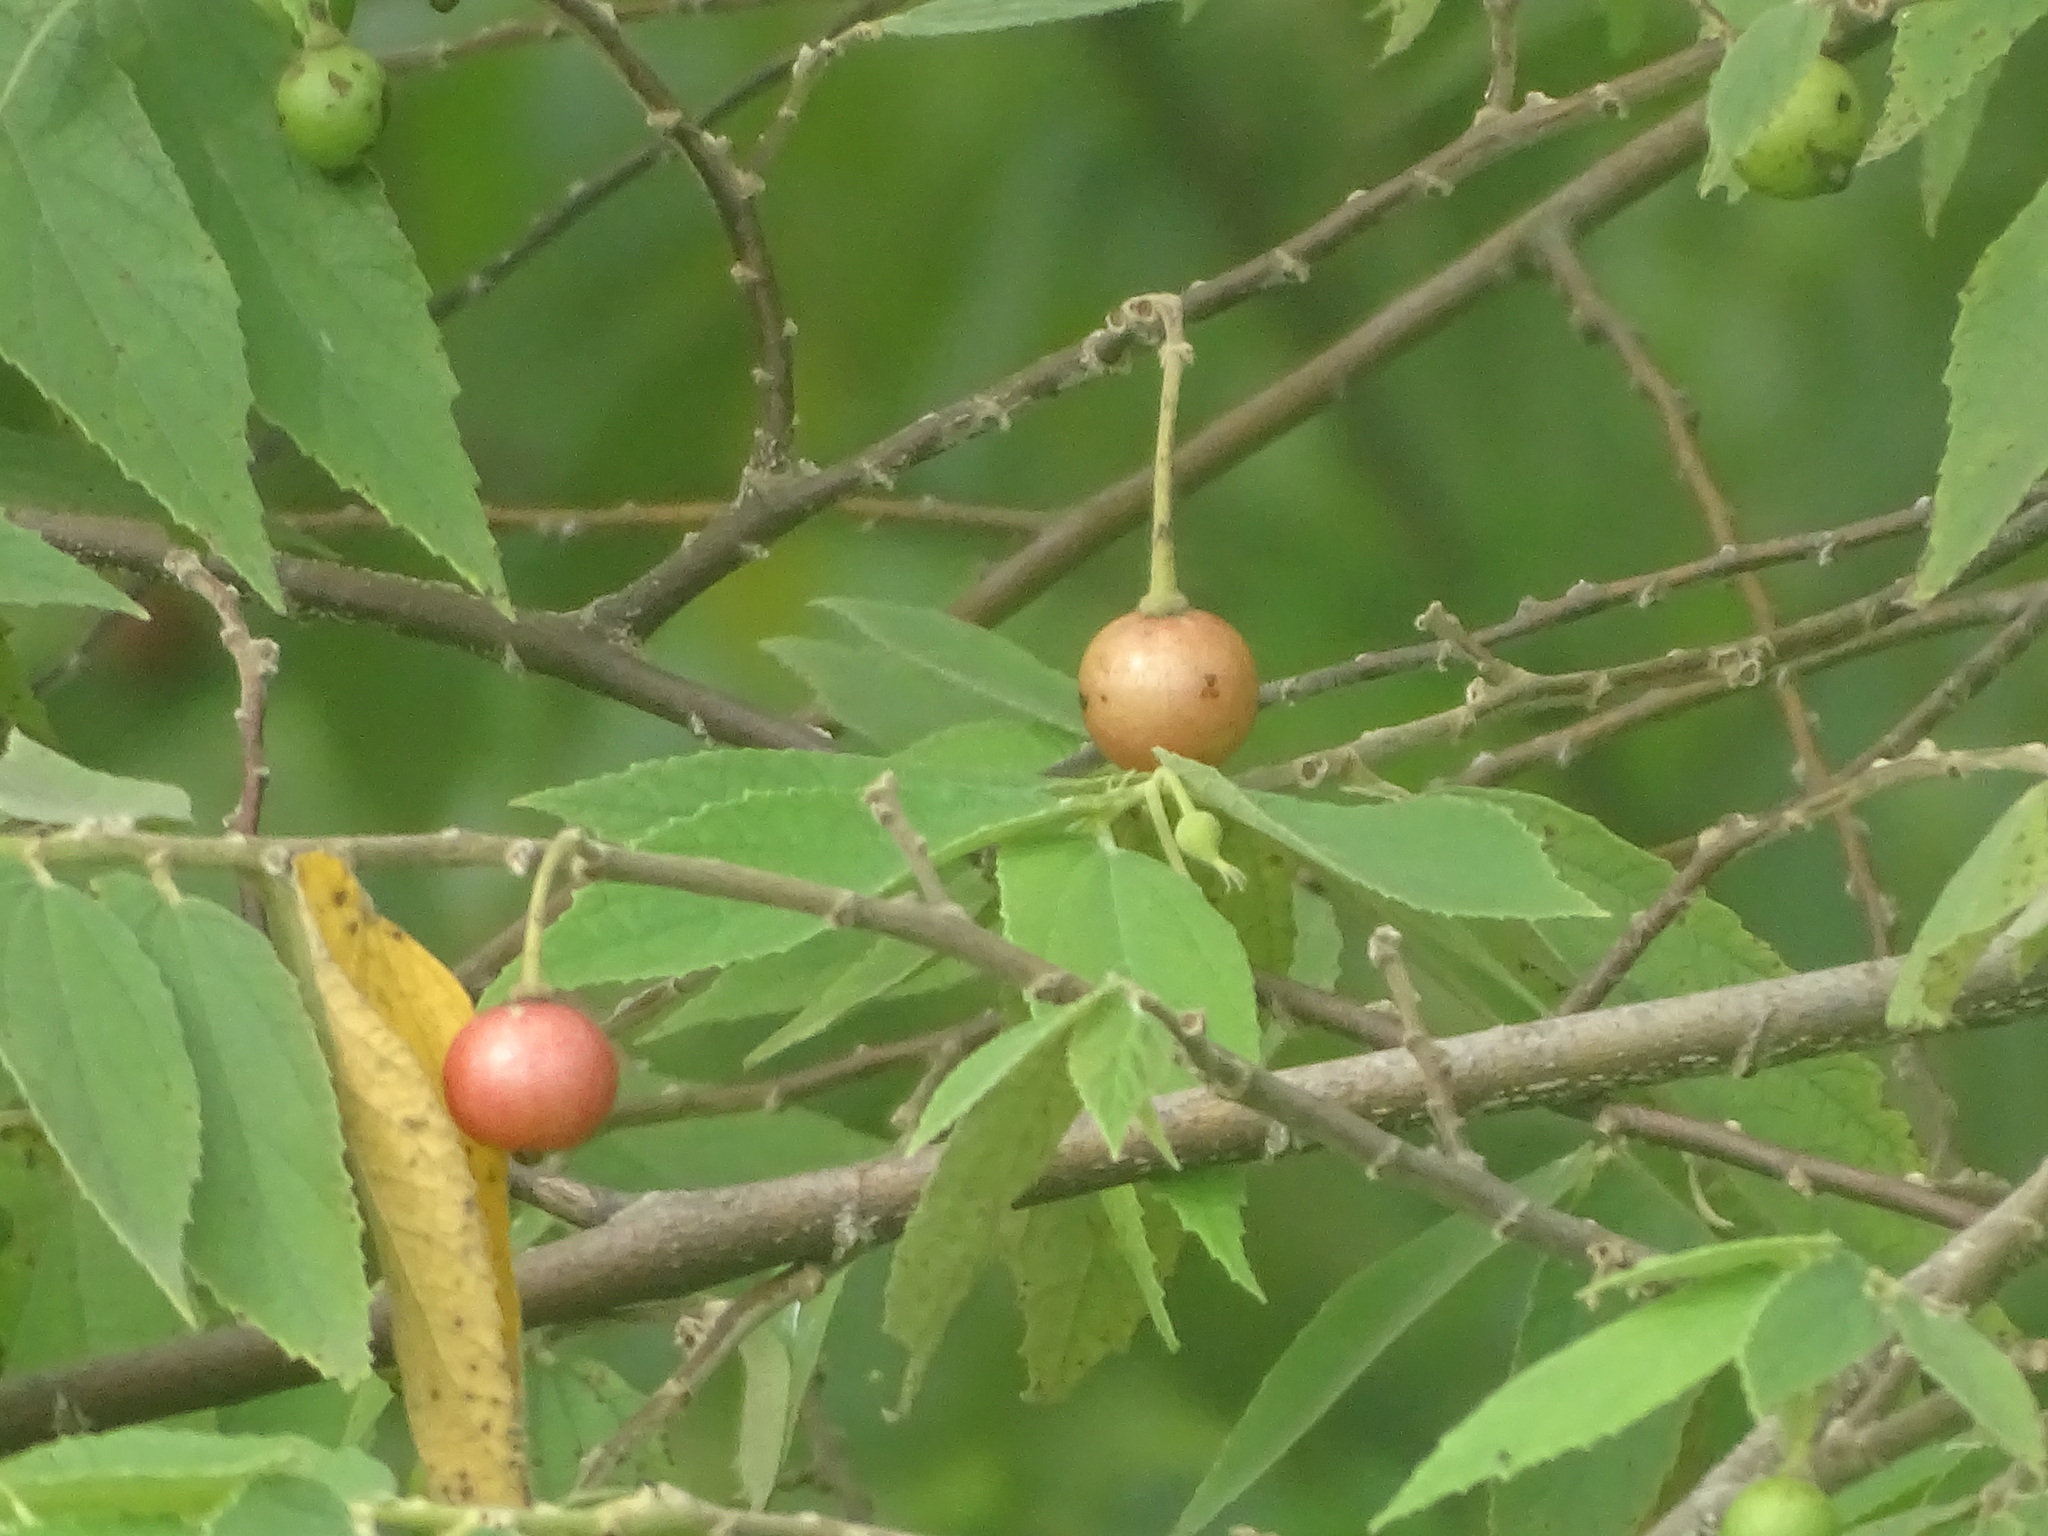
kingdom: Plantae
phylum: Tracheophyta
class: Magnoliopsida
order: Malvales
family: Muntingiaceae
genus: Muntingia
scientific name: Muntingia calabura
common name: Strawberrytree
